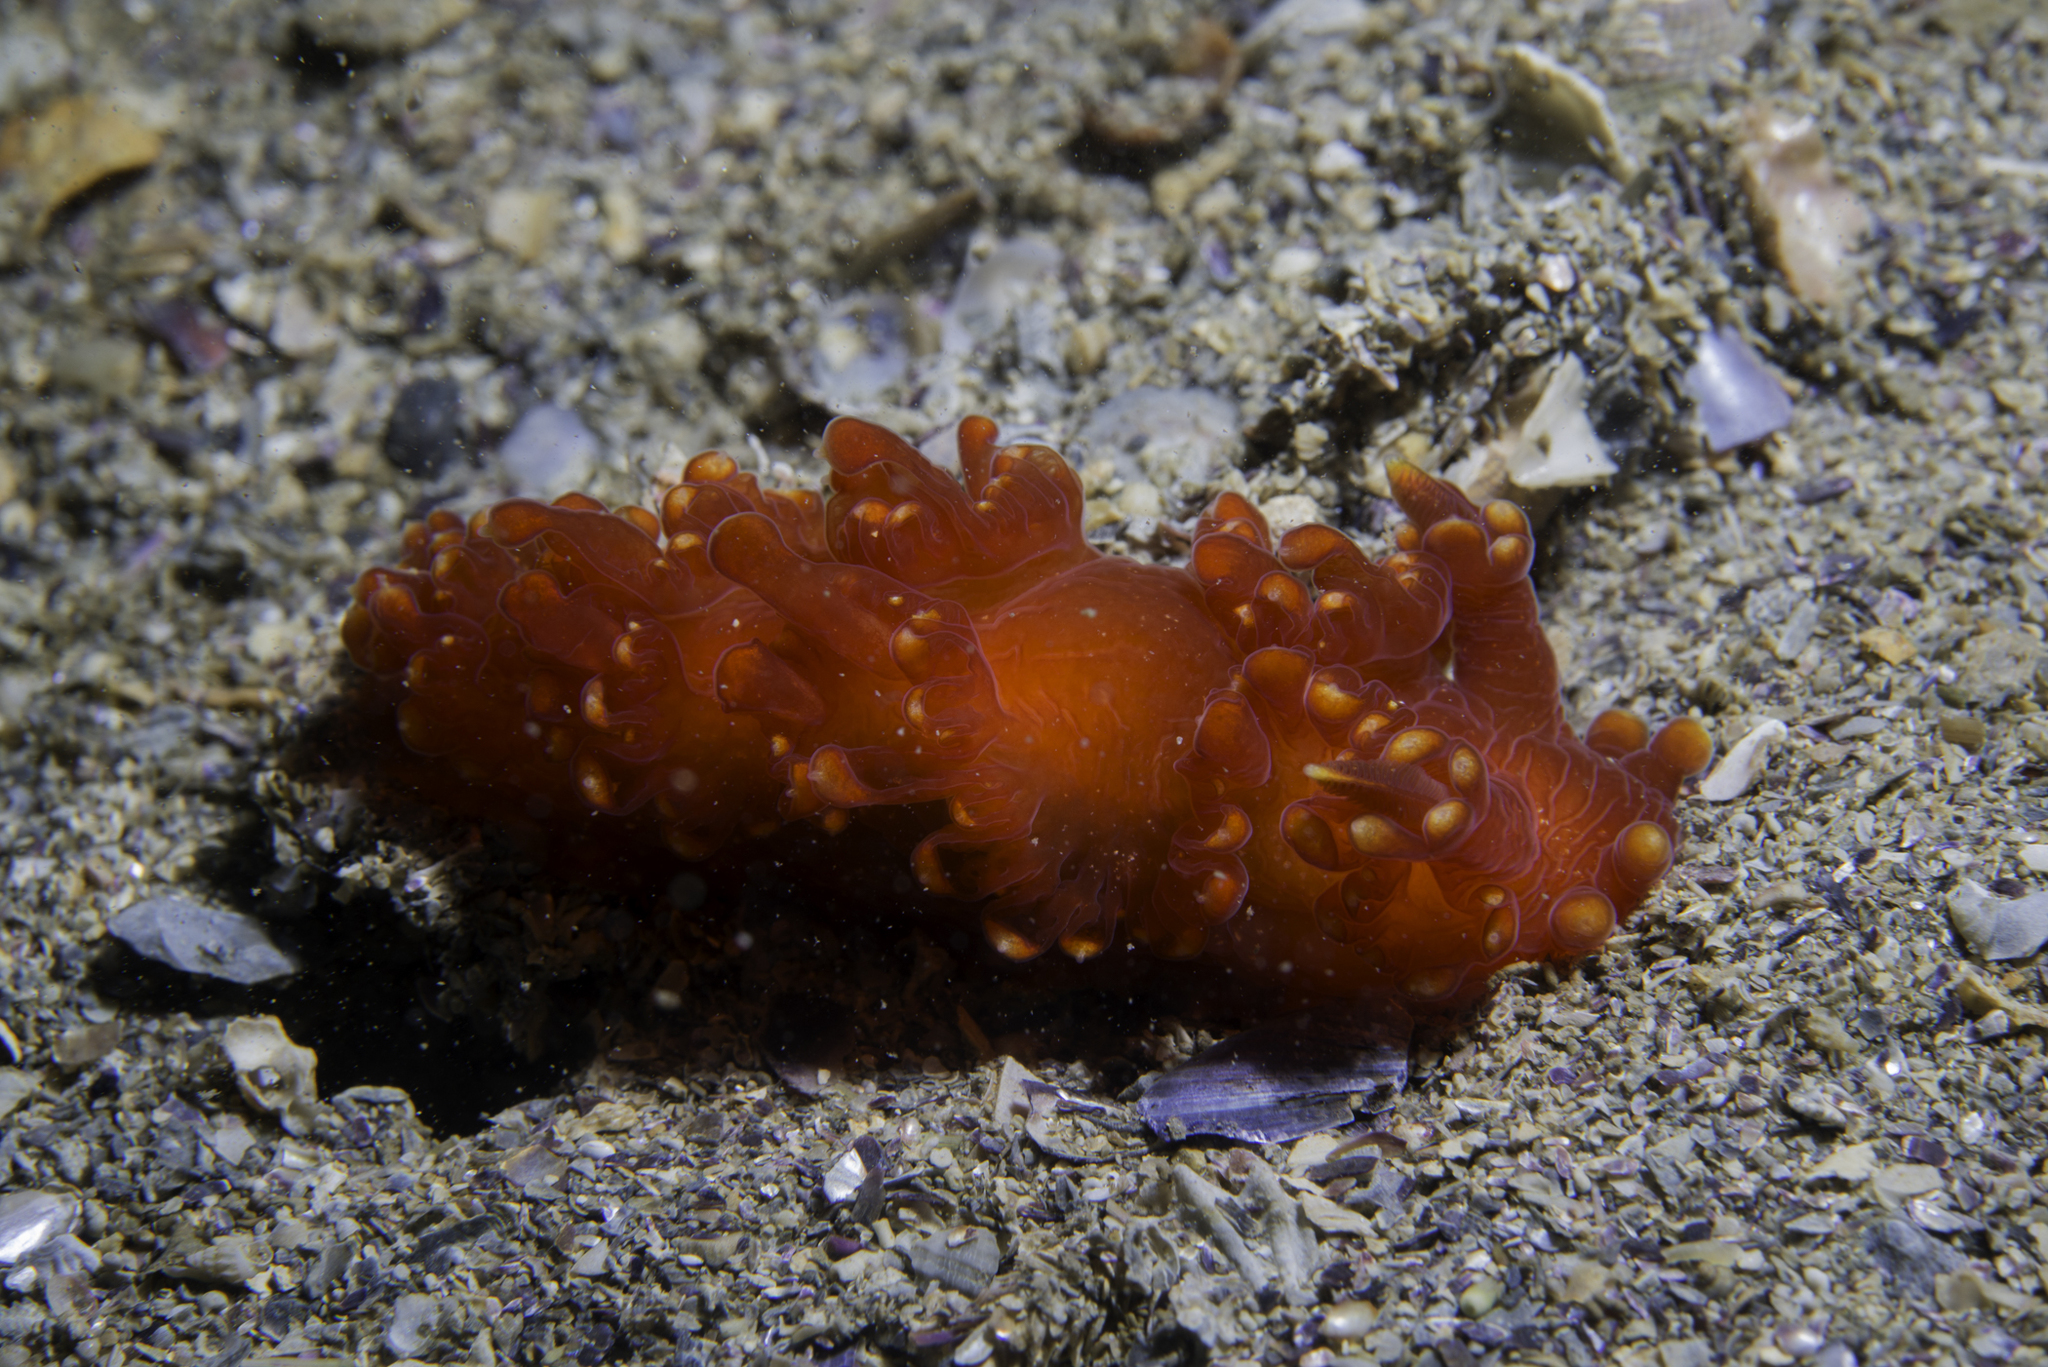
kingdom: Animalia
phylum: Mollusca
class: Gastropoda
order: Nudibranchia
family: Lomanotidae
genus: Lomanotus
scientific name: Lomanotus genei
